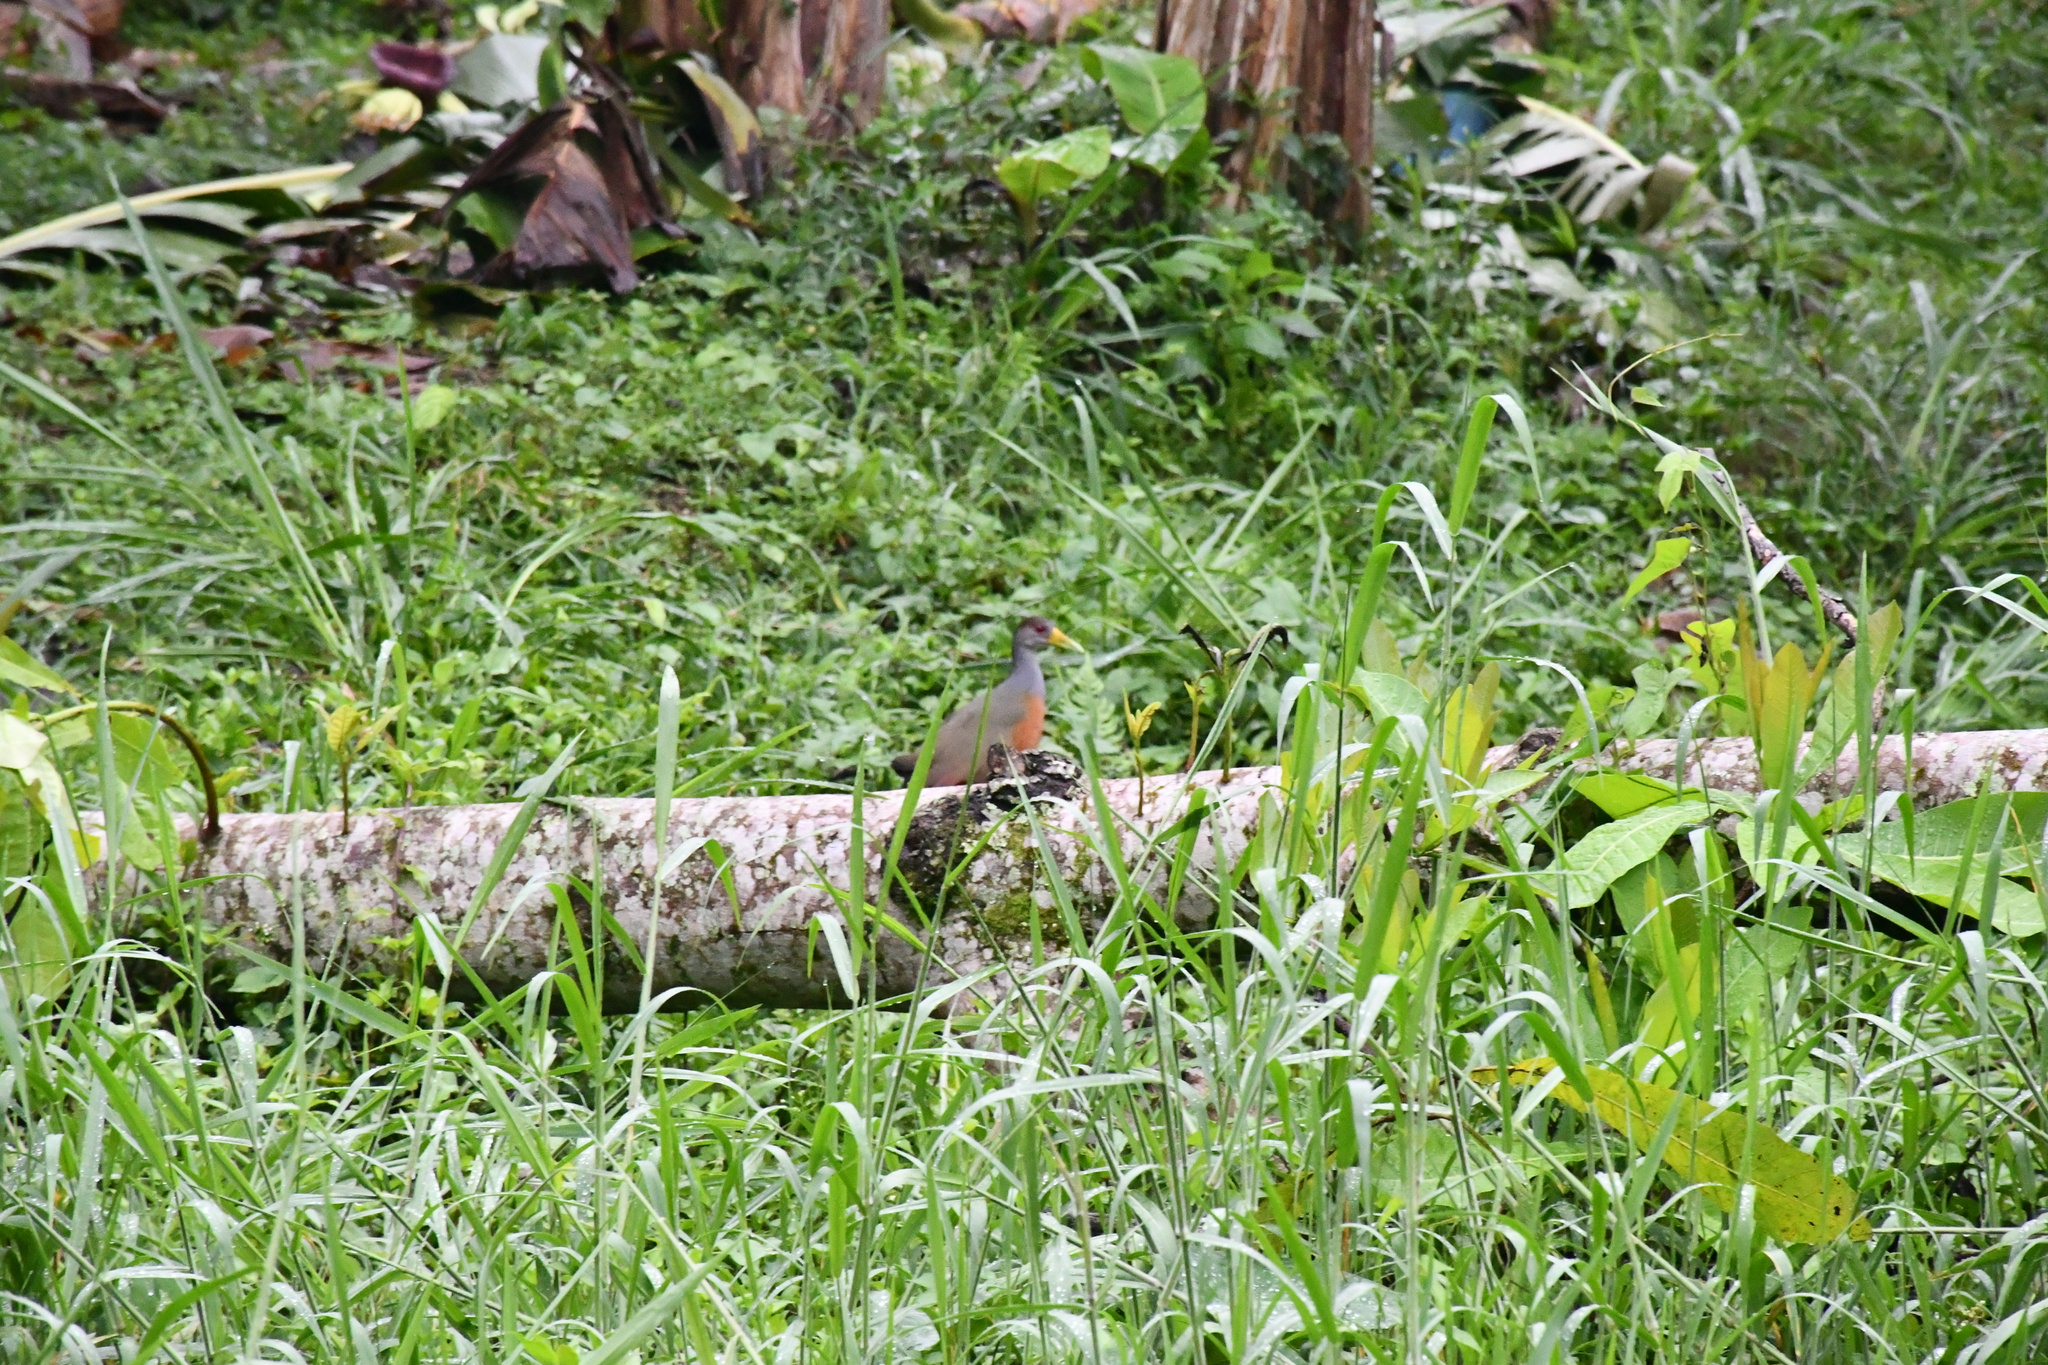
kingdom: Animalia
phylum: Chordata
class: Aves
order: Gruiformes
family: Rallidae
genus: Aramides
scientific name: Aramides cajanea
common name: Gray-necked wood-rail
